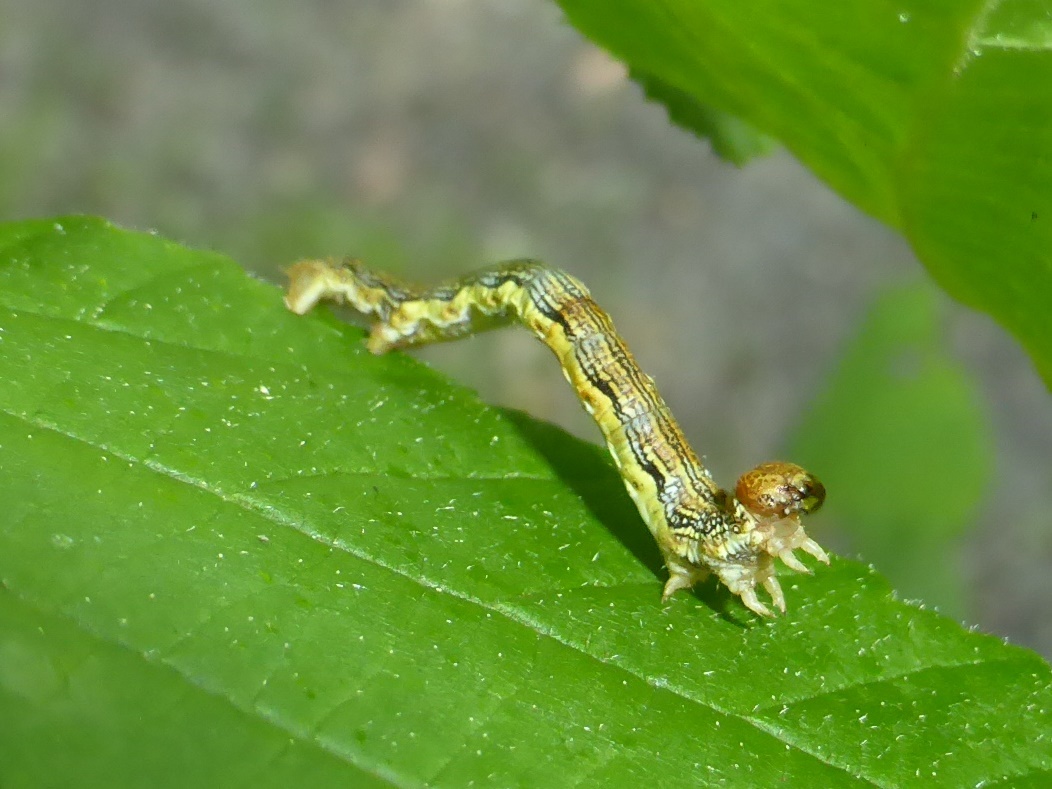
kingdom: Animalia
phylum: Arthropoda
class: Insecta
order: Lepidoptera
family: Geometridae
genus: Erannis
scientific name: Erannis defoliaria
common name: Mottled umber
